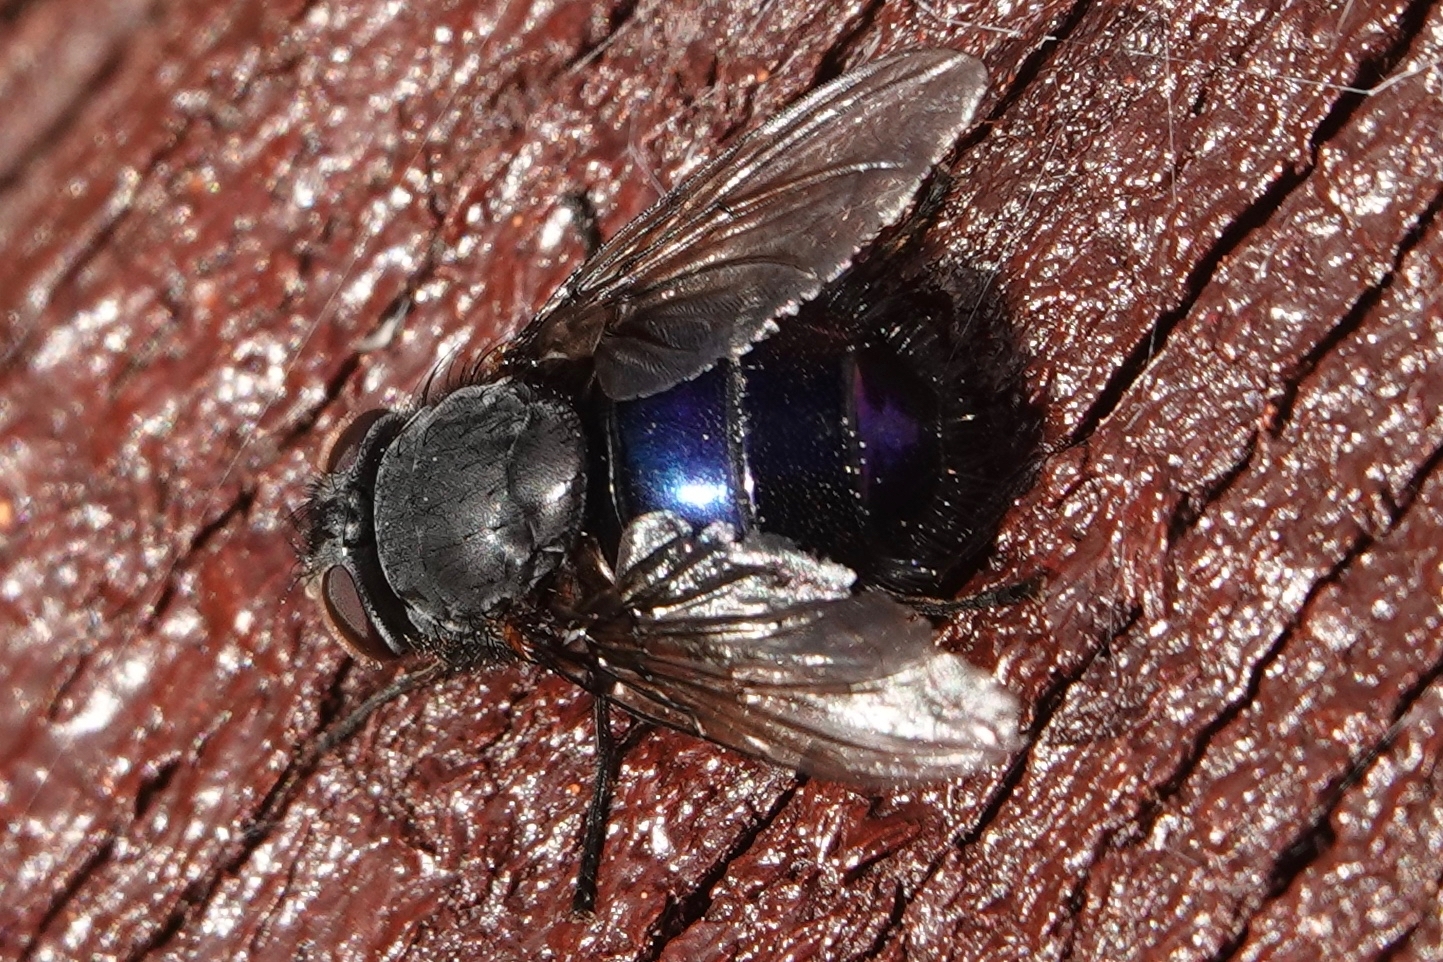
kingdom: Animalia
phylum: Arthropoda
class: Insecta
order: Diptera
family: Calliphoridae
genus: Calliphora
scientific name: Calliphora quadrimaculata
